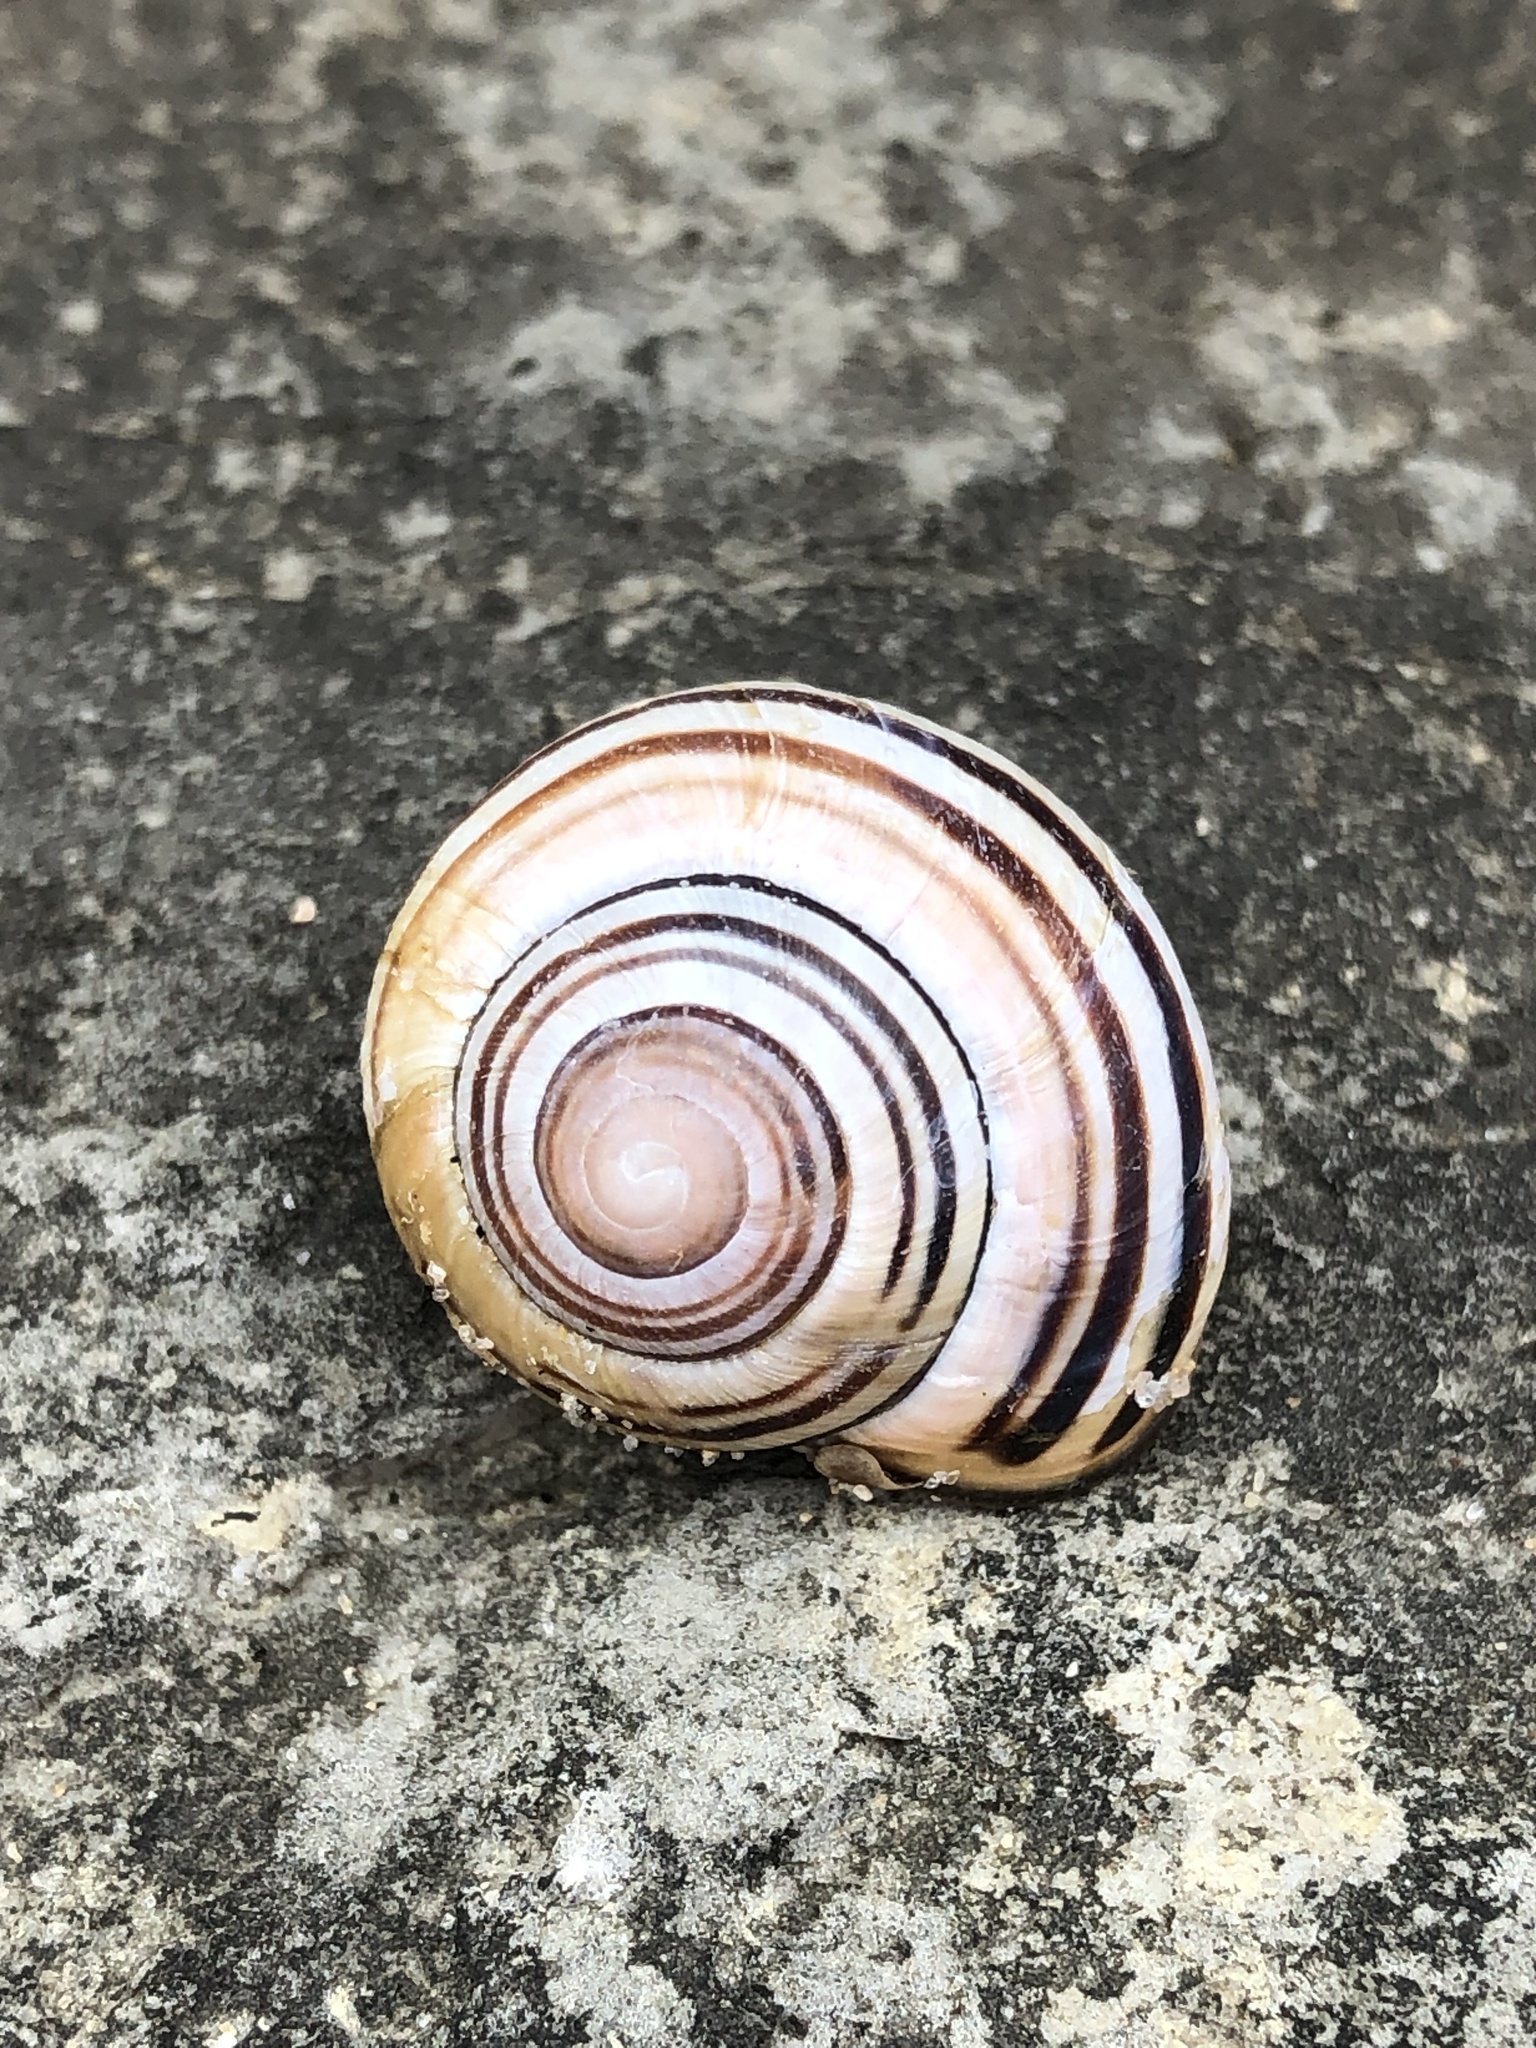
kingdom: Animalia
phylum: Mollusca
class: Gastropoda
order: Stylommatophora
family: Helicidae
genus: Cepaea
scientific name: Cepaea nemoralis
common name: Grovesnail
